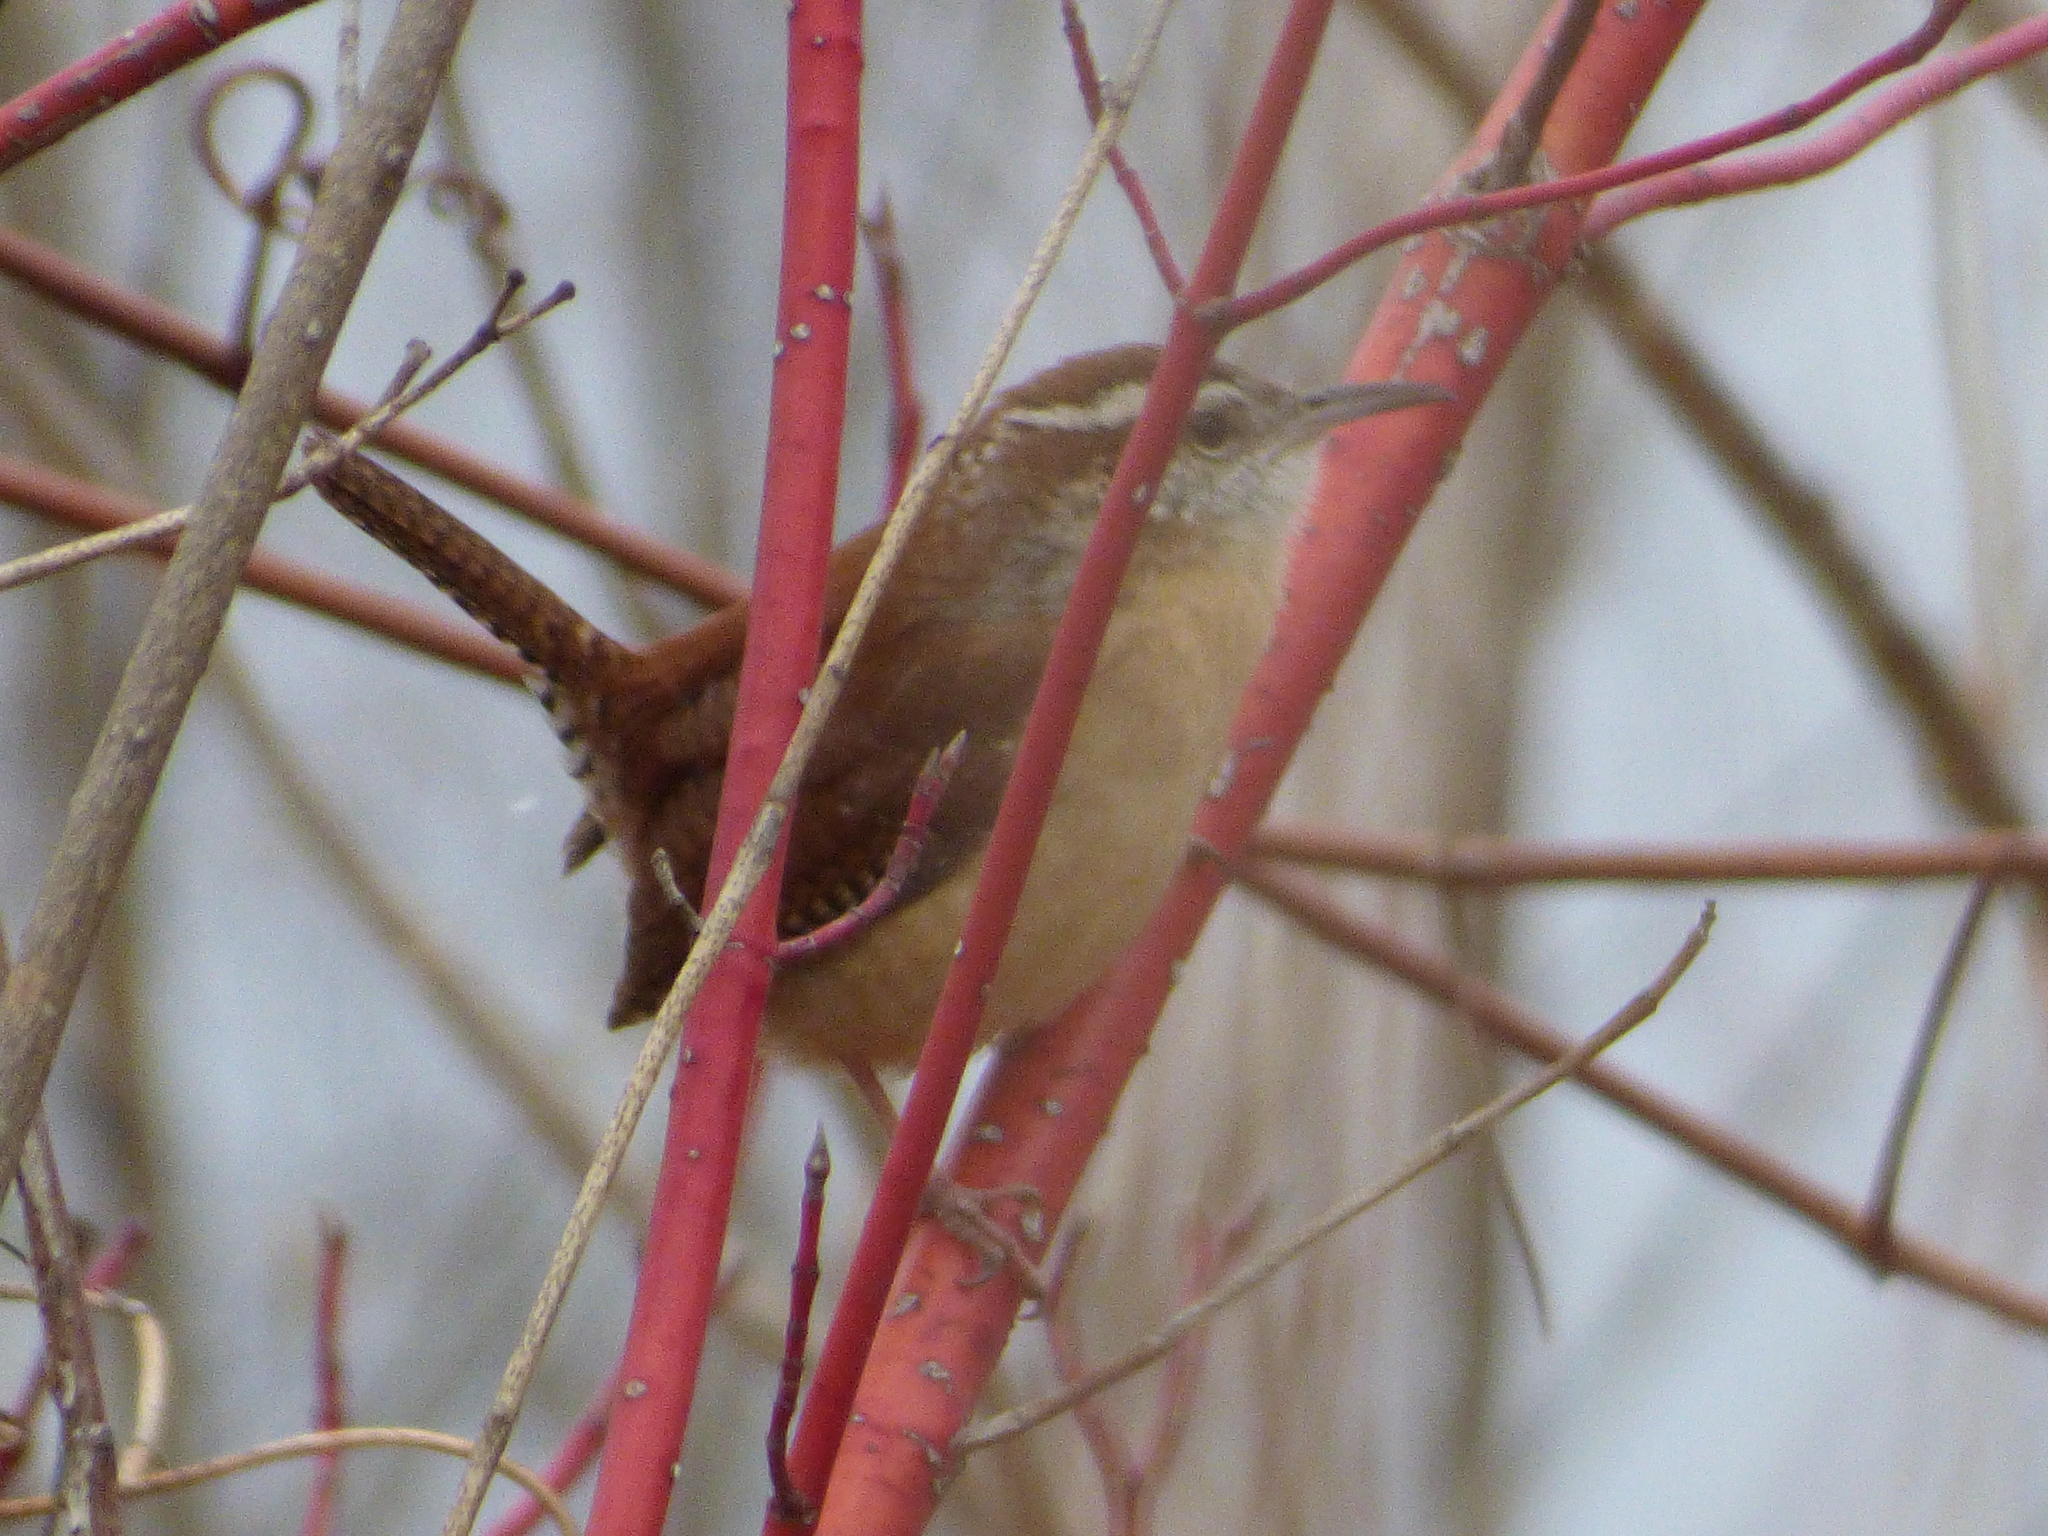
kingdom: Animalia
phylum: Chordata
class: Aves
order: Passeriformes
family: Troglodytidae
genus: Thryothorus
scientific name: Thryothorus ludovicianus
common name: Carolina wren
